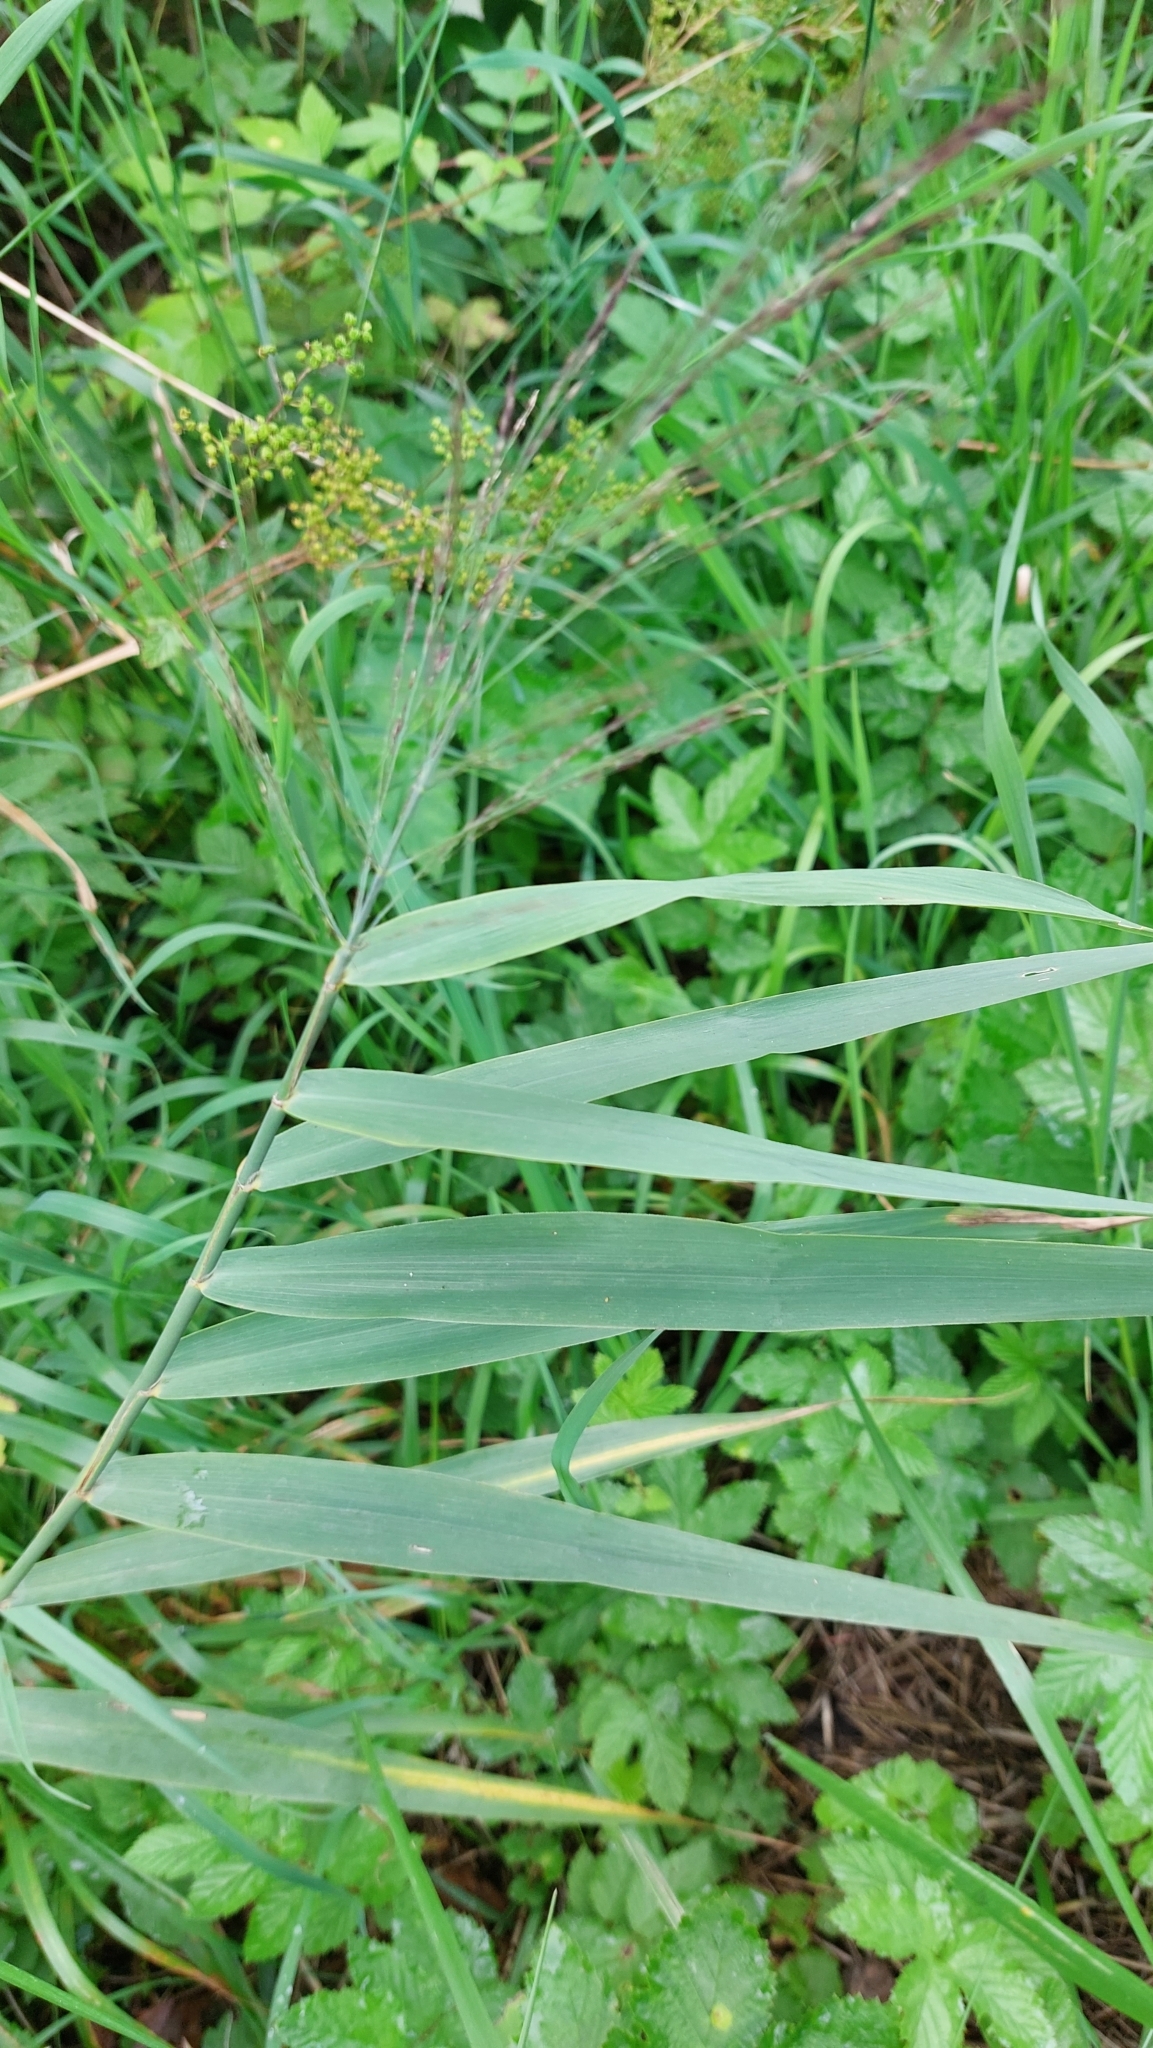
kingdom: Plantae
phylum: Tracheophyta
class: Liliopsida
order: Poales
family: Poaceae
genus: Phragmites
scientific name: Phragmites australis
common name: Common reed
